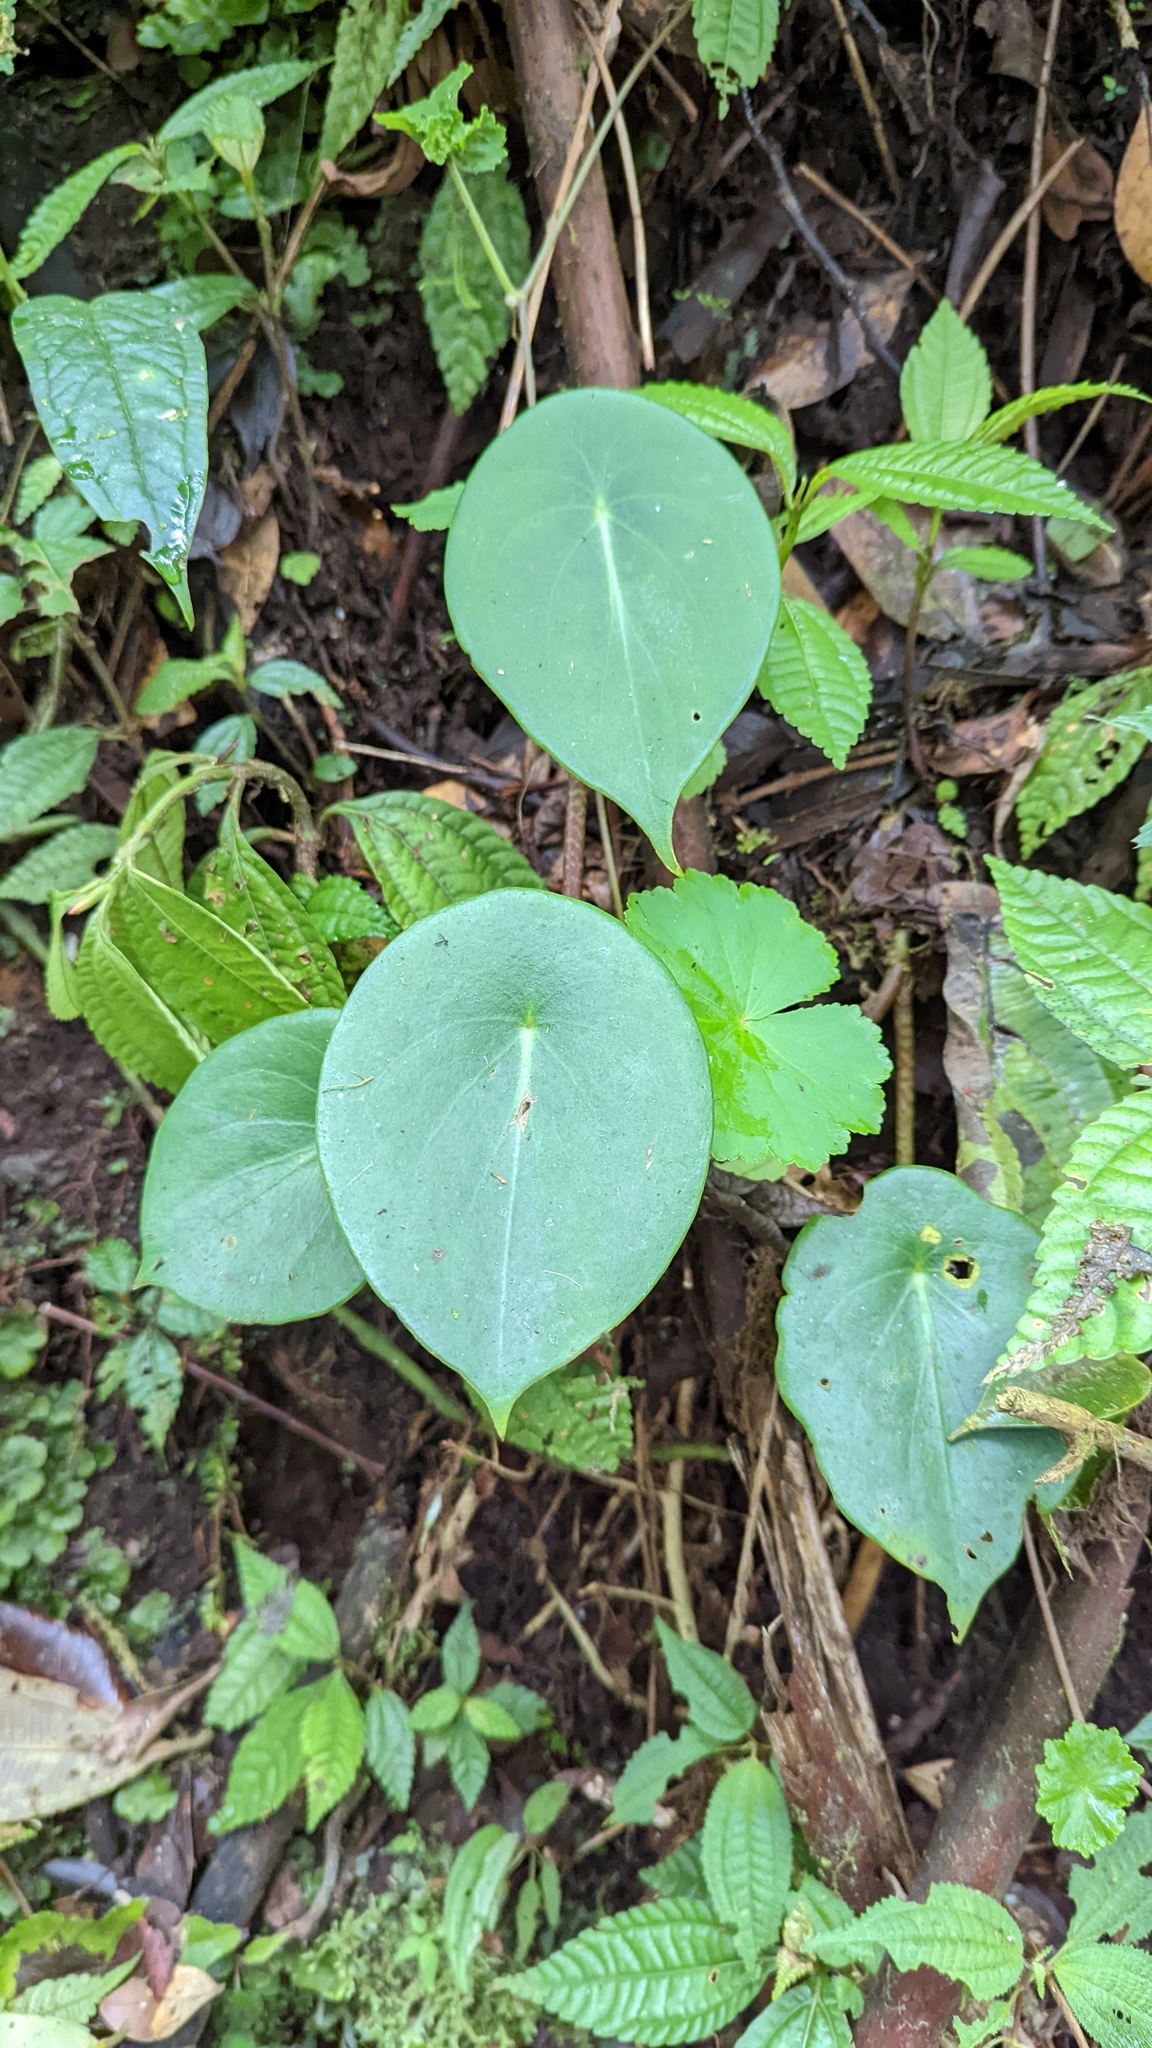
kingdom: Plantae
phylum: Tracheophyta
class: Magnoliopsida
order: Piperales
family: Piperaceae
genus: Peperomia
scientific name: Peperomia hernandiifolia
